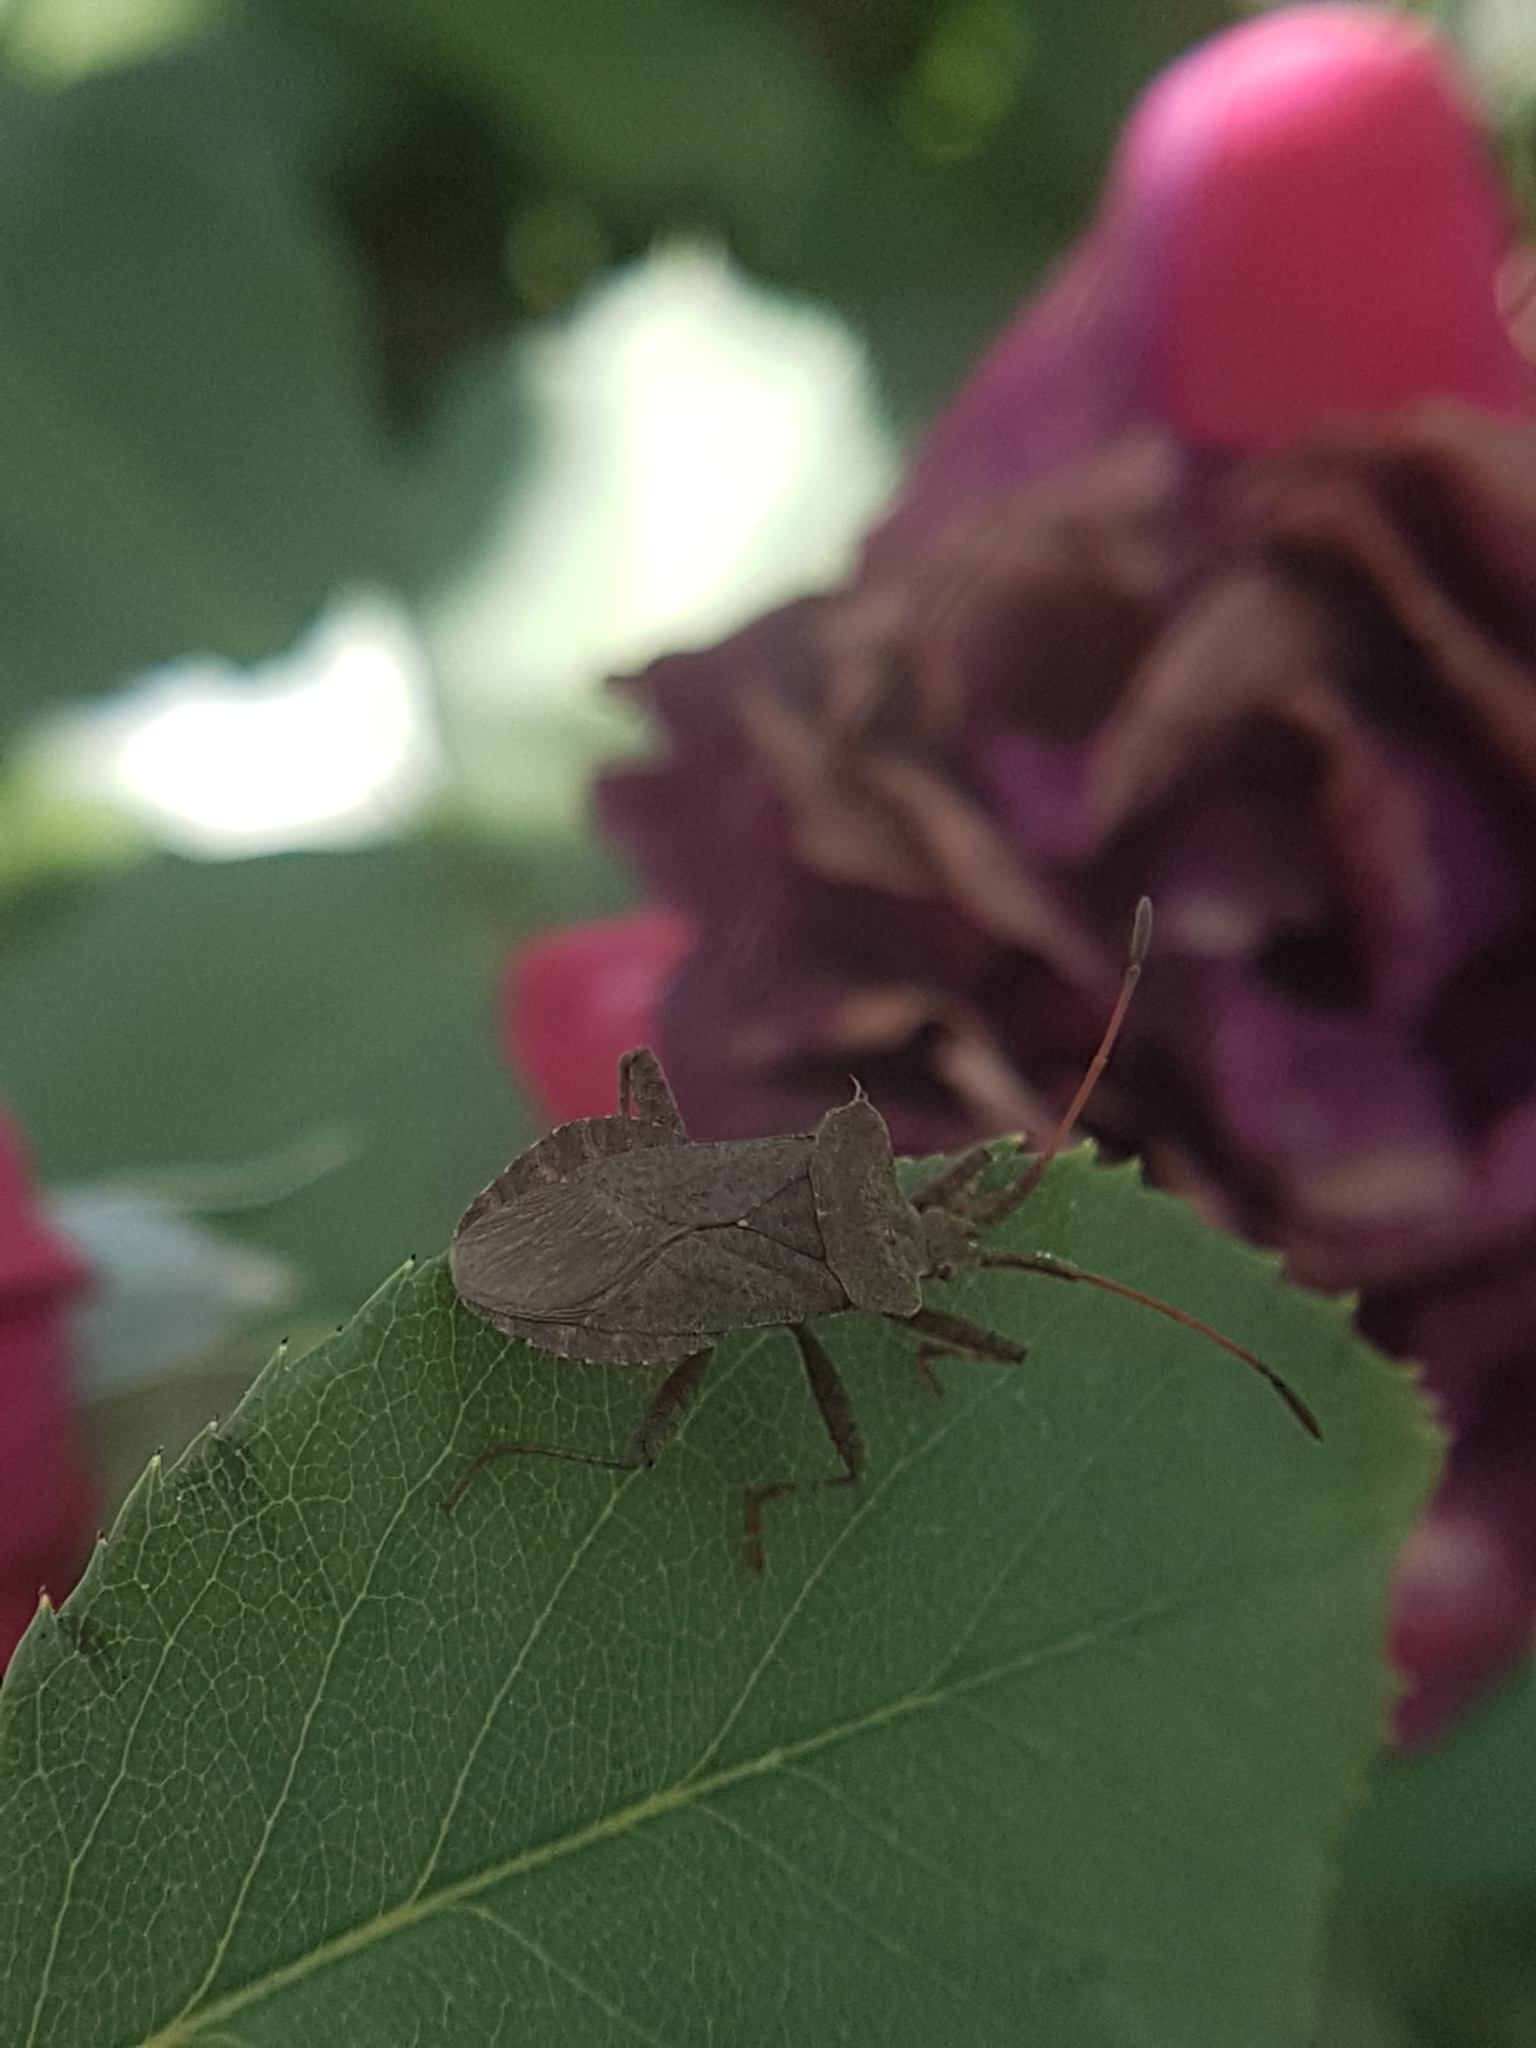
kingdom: Animalia
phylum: Arthropoda
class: Insecta
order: Hemiptera
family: Coreidae
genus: Coreus
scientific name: Coreus marginatus
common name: Dock bug
